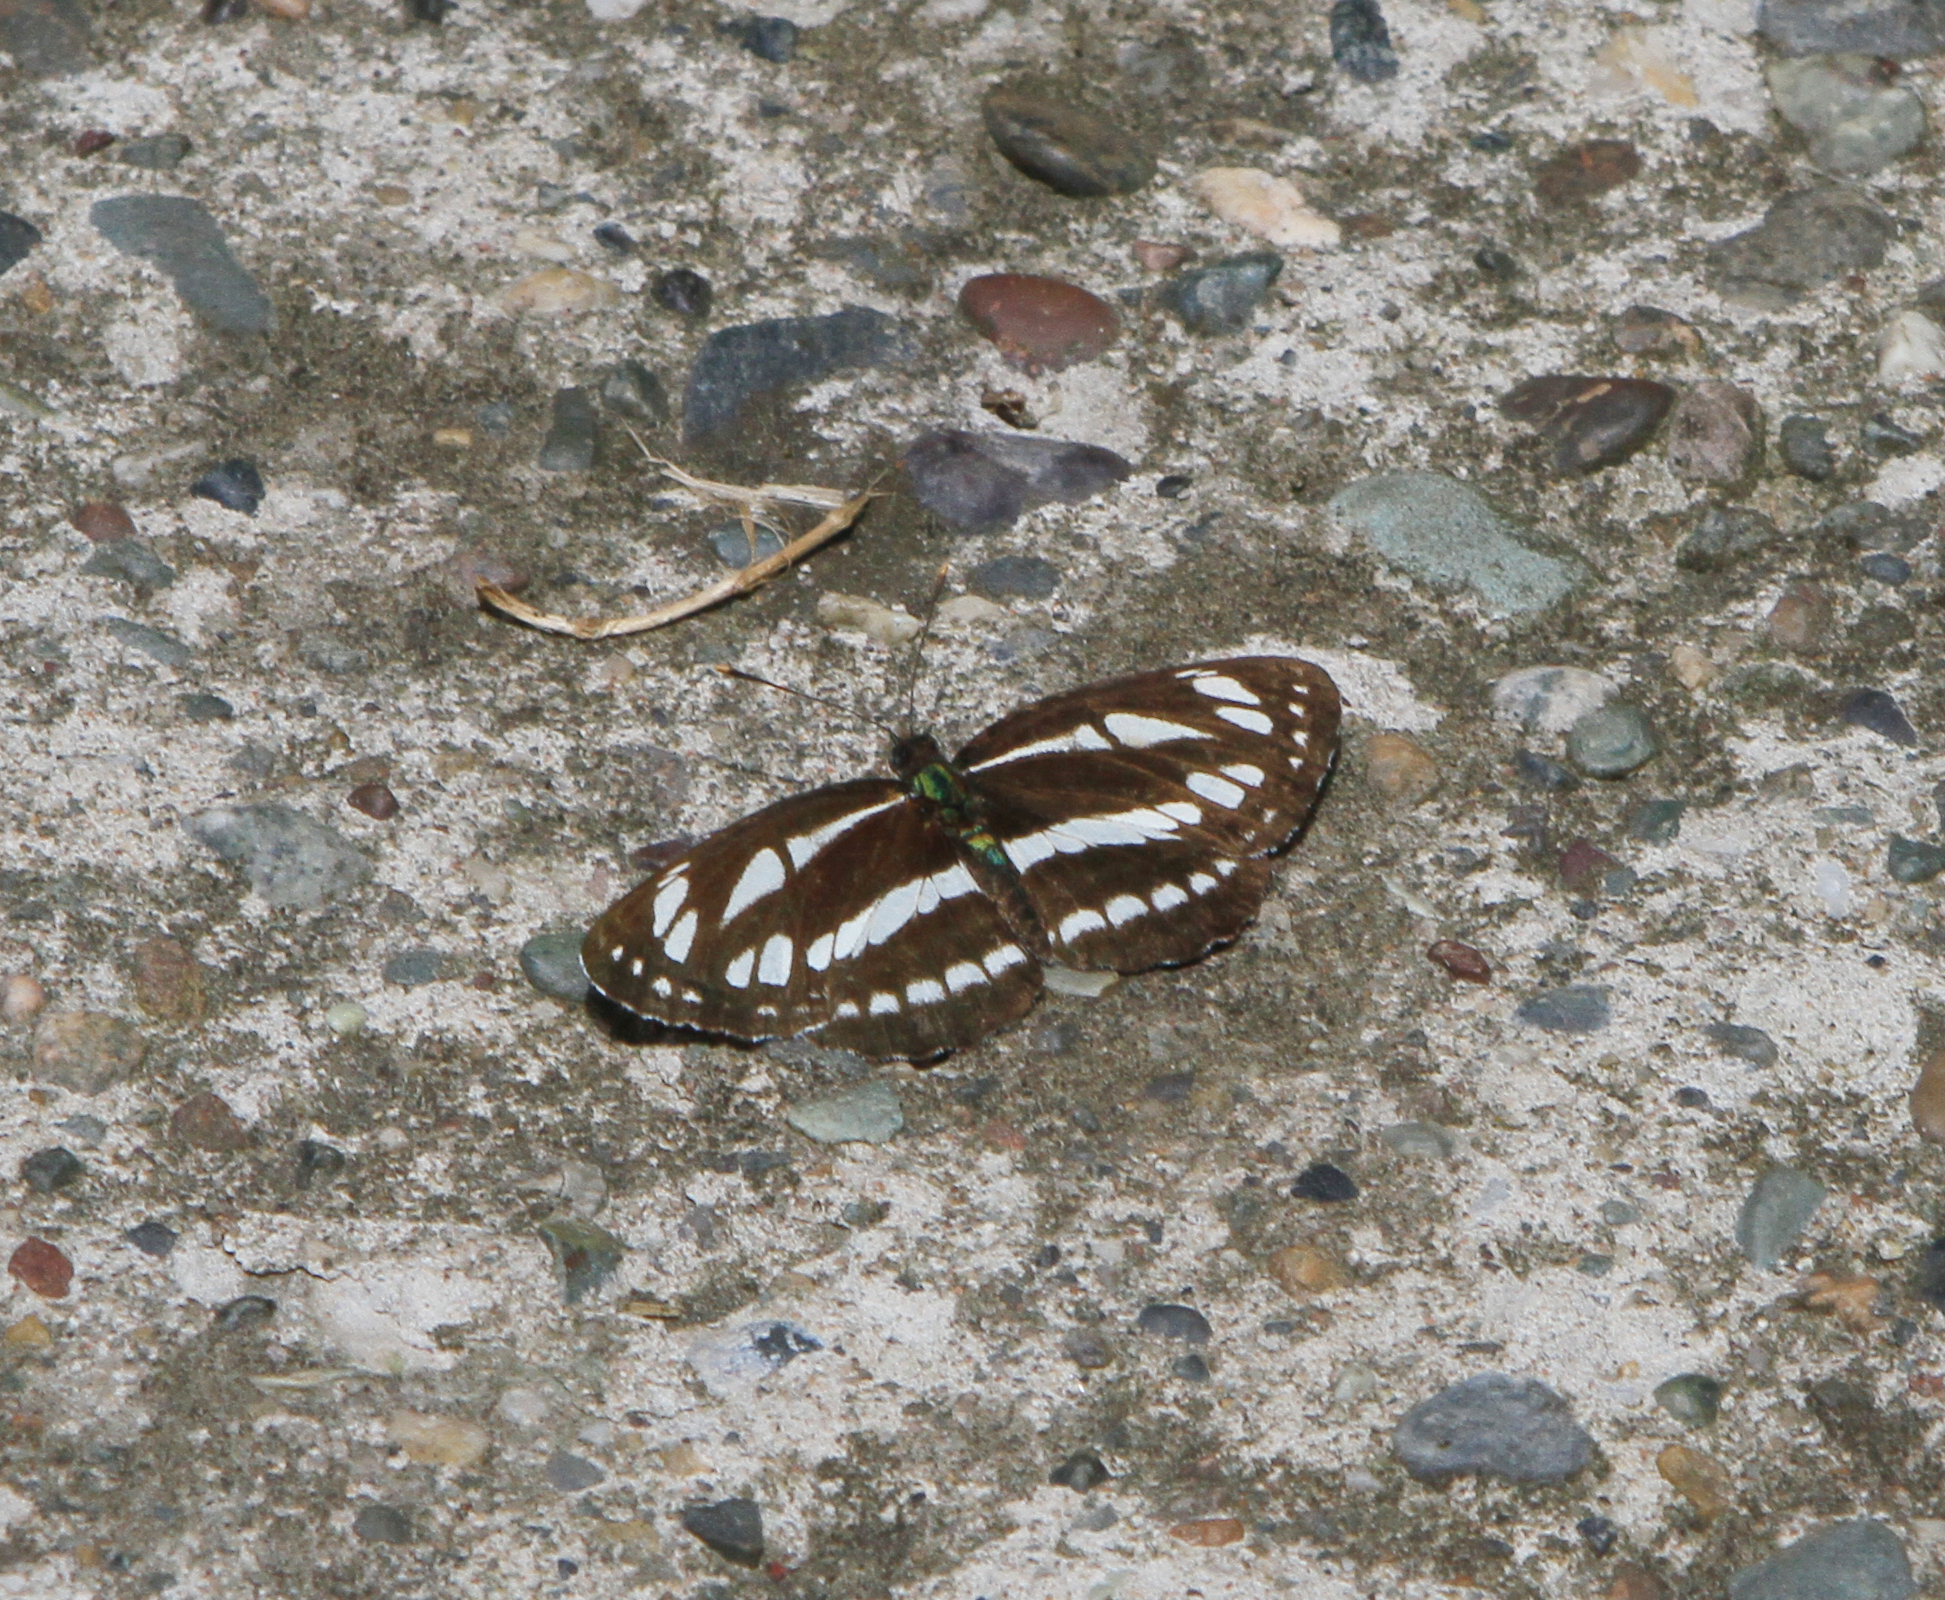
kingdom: Animalia
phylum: Arthropoda
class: Insecta
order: Lepidoptera
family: Nymphalidae
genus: Neptis
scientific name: Neptis sappho
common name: Common glider
